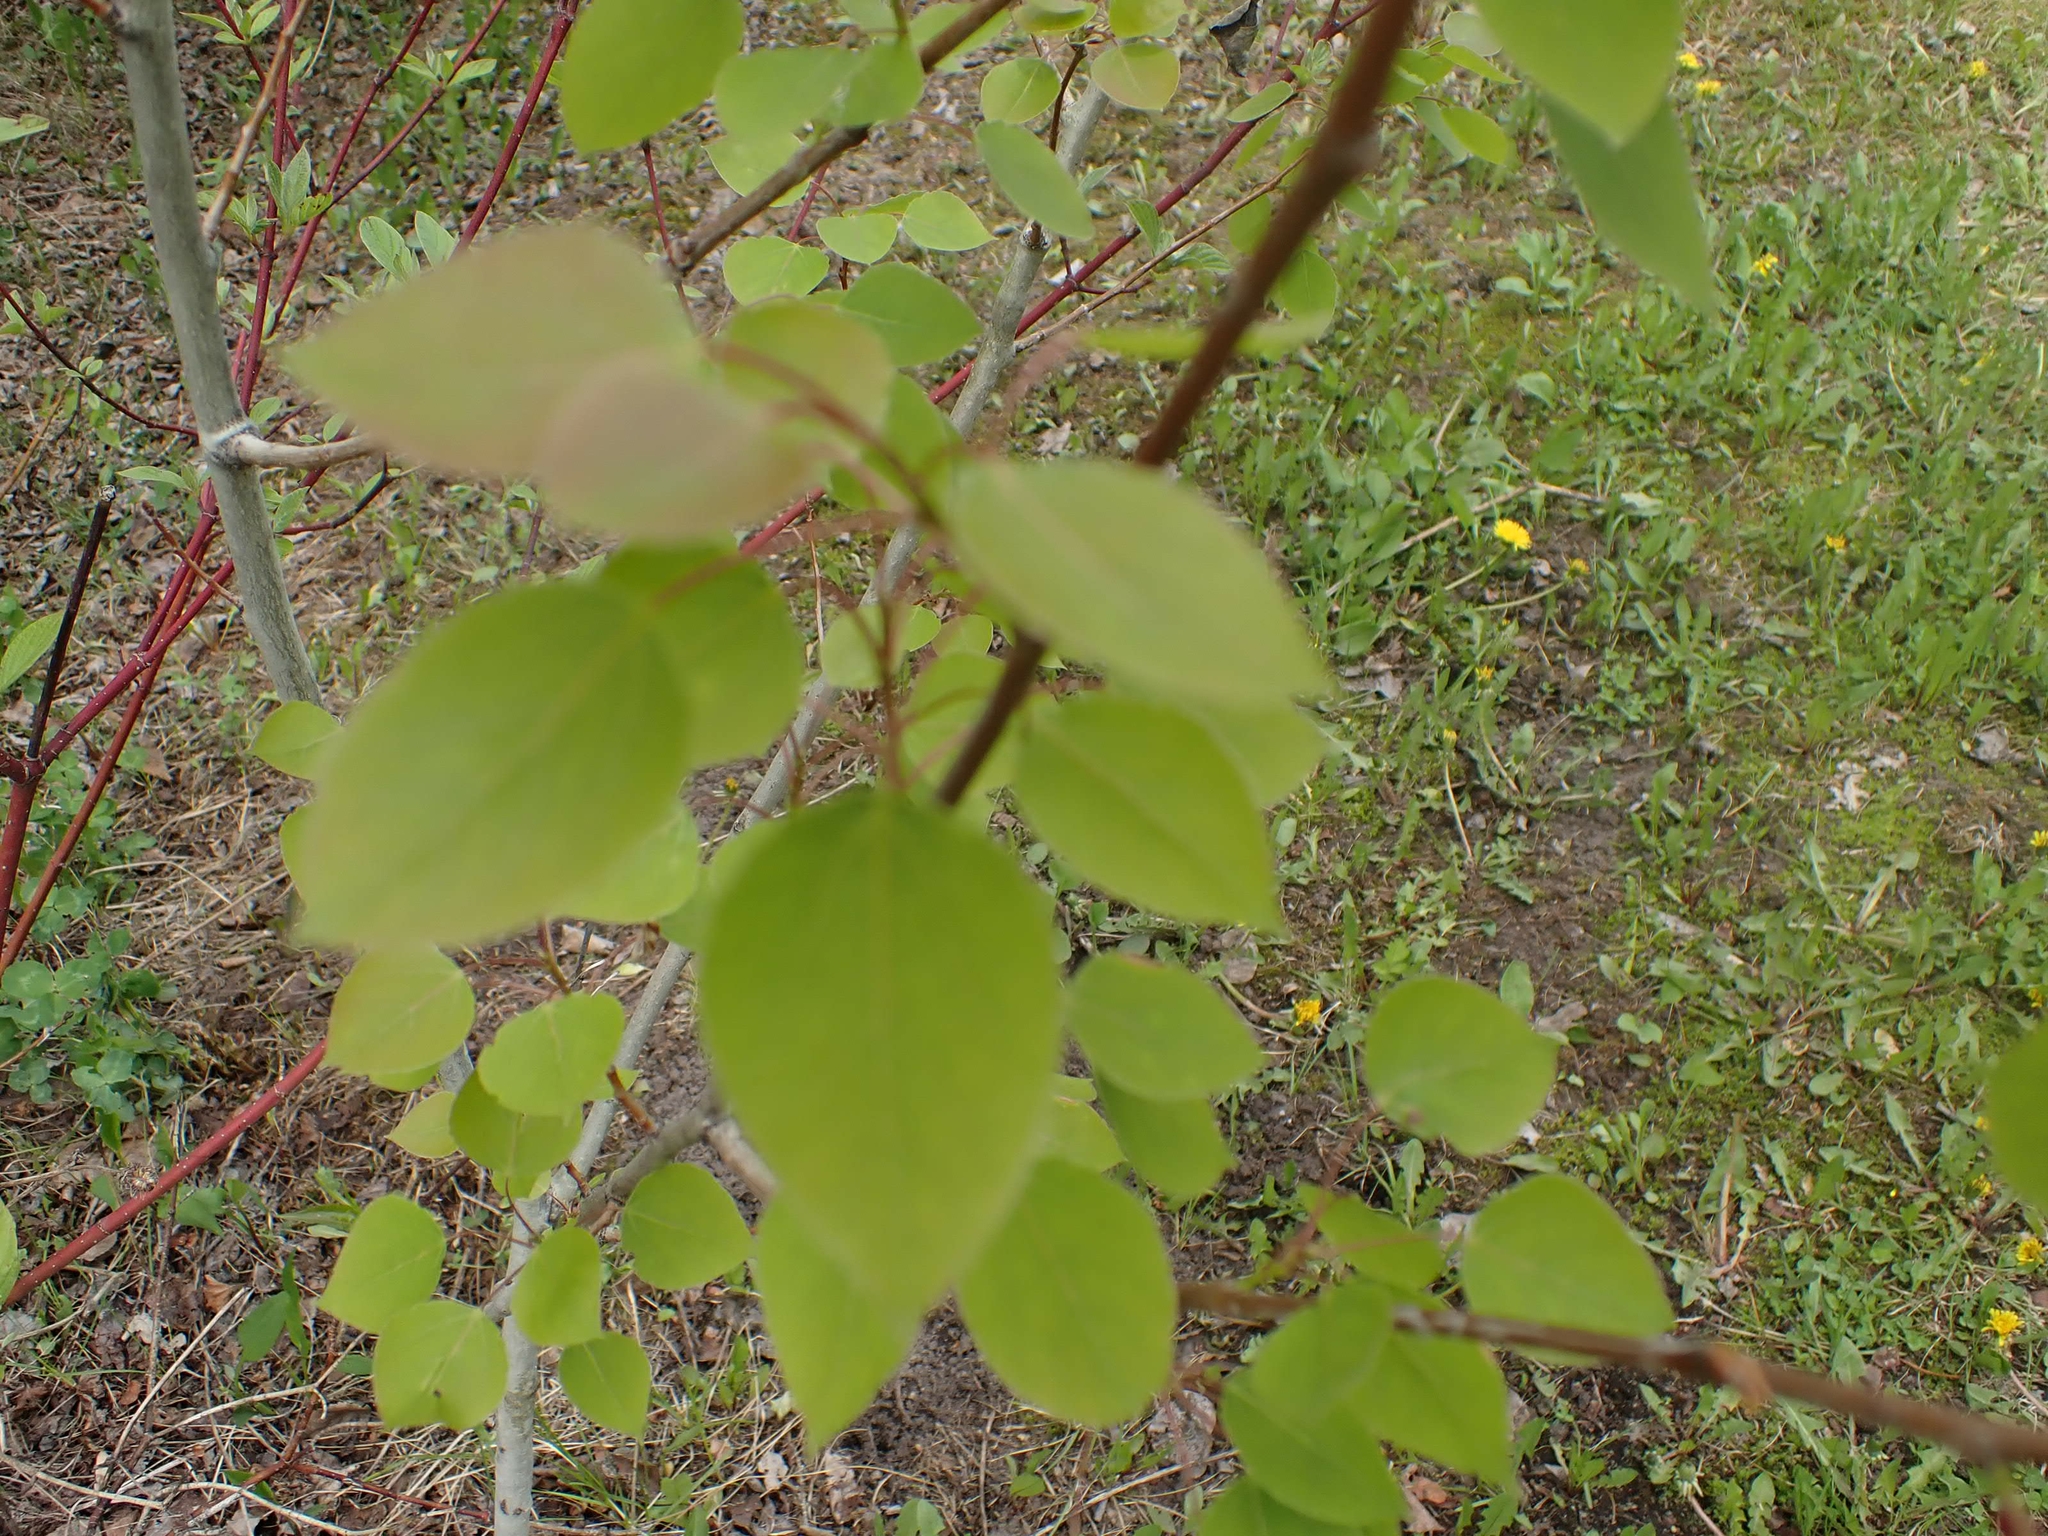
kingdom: Plantae
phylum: Tracheophyta
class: Magnoliopsida
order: Malpighiales
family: Salicaceae
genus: Populus
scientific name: Populus balsamifera
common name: Balsam poplar
